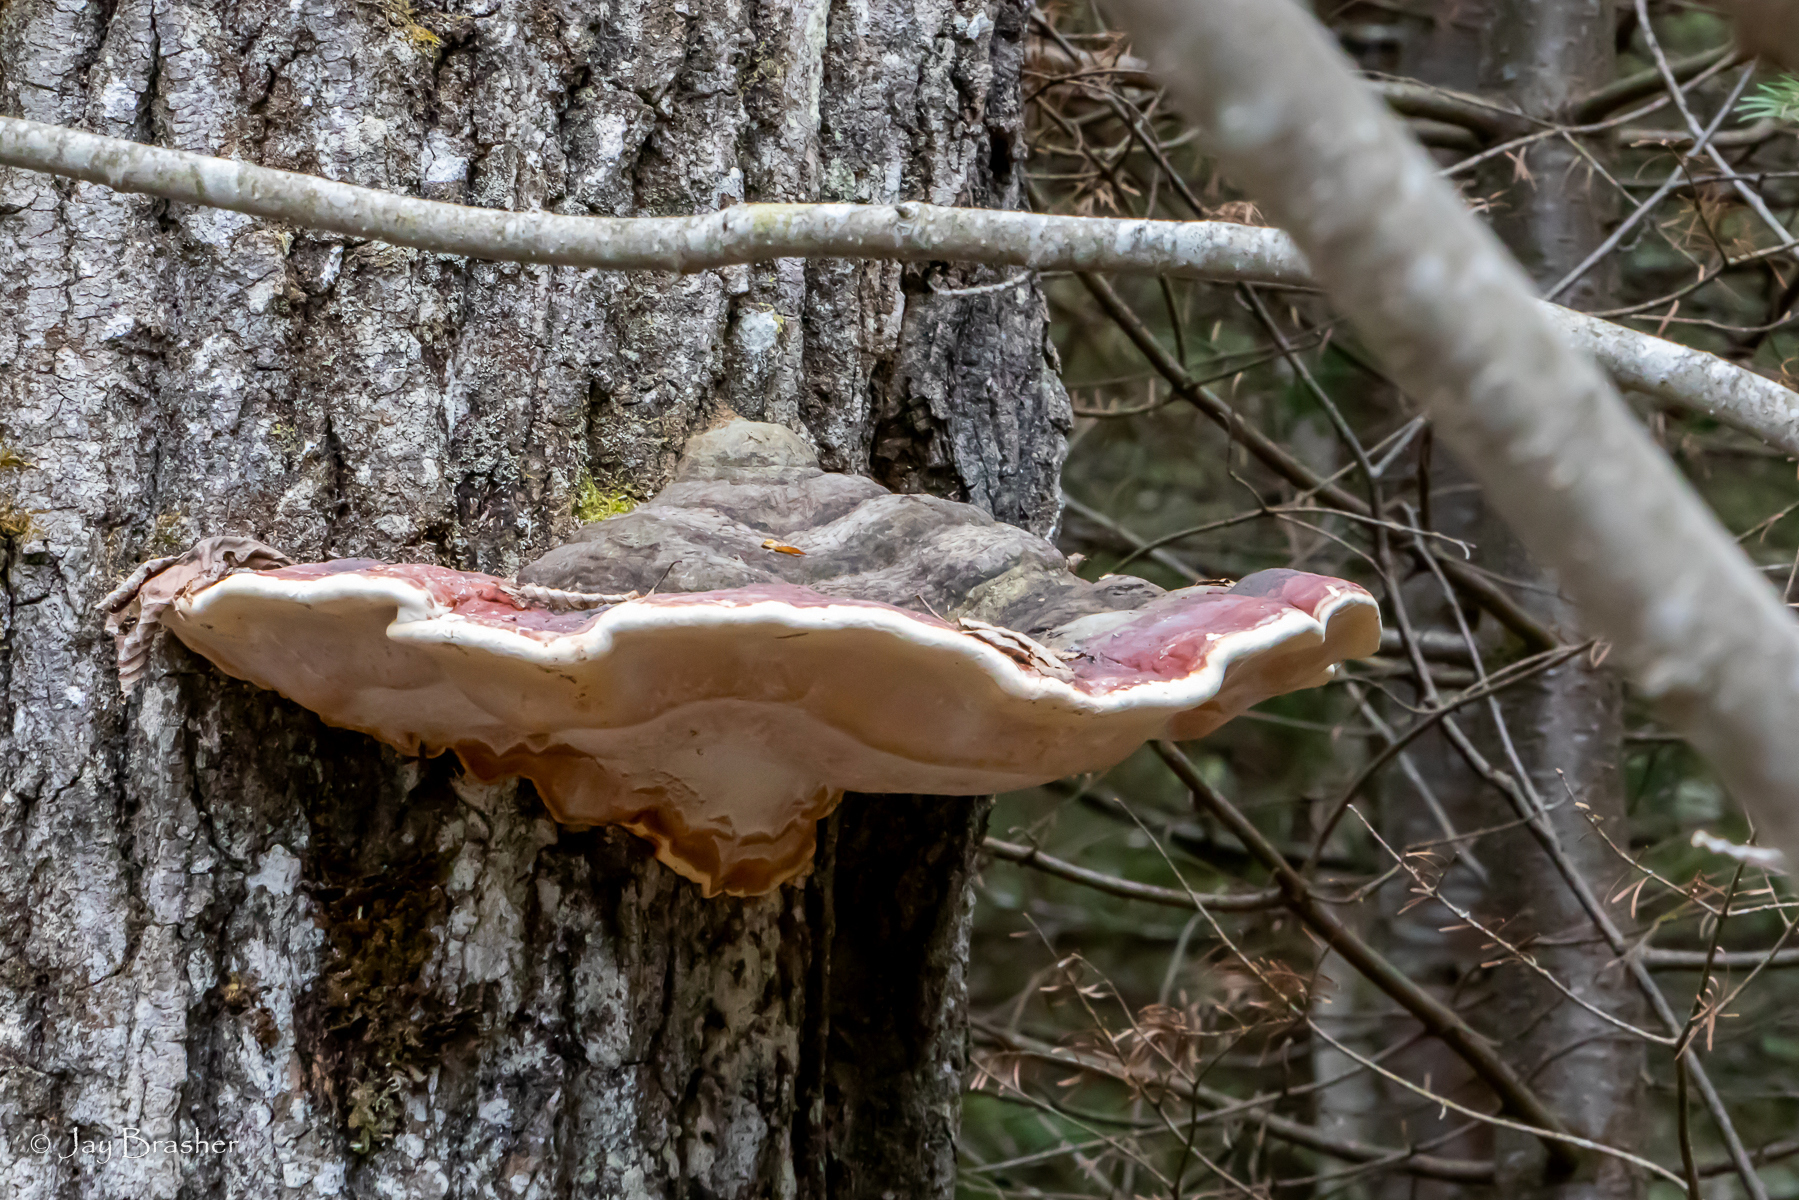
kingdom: Fungi
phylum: Basidiomycota
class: Agaricomycetes
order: Polyporales
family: Fomitopsidaceae
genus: Fomitopsis
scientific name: Fomitopsis mounceae
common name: Northern red belt
